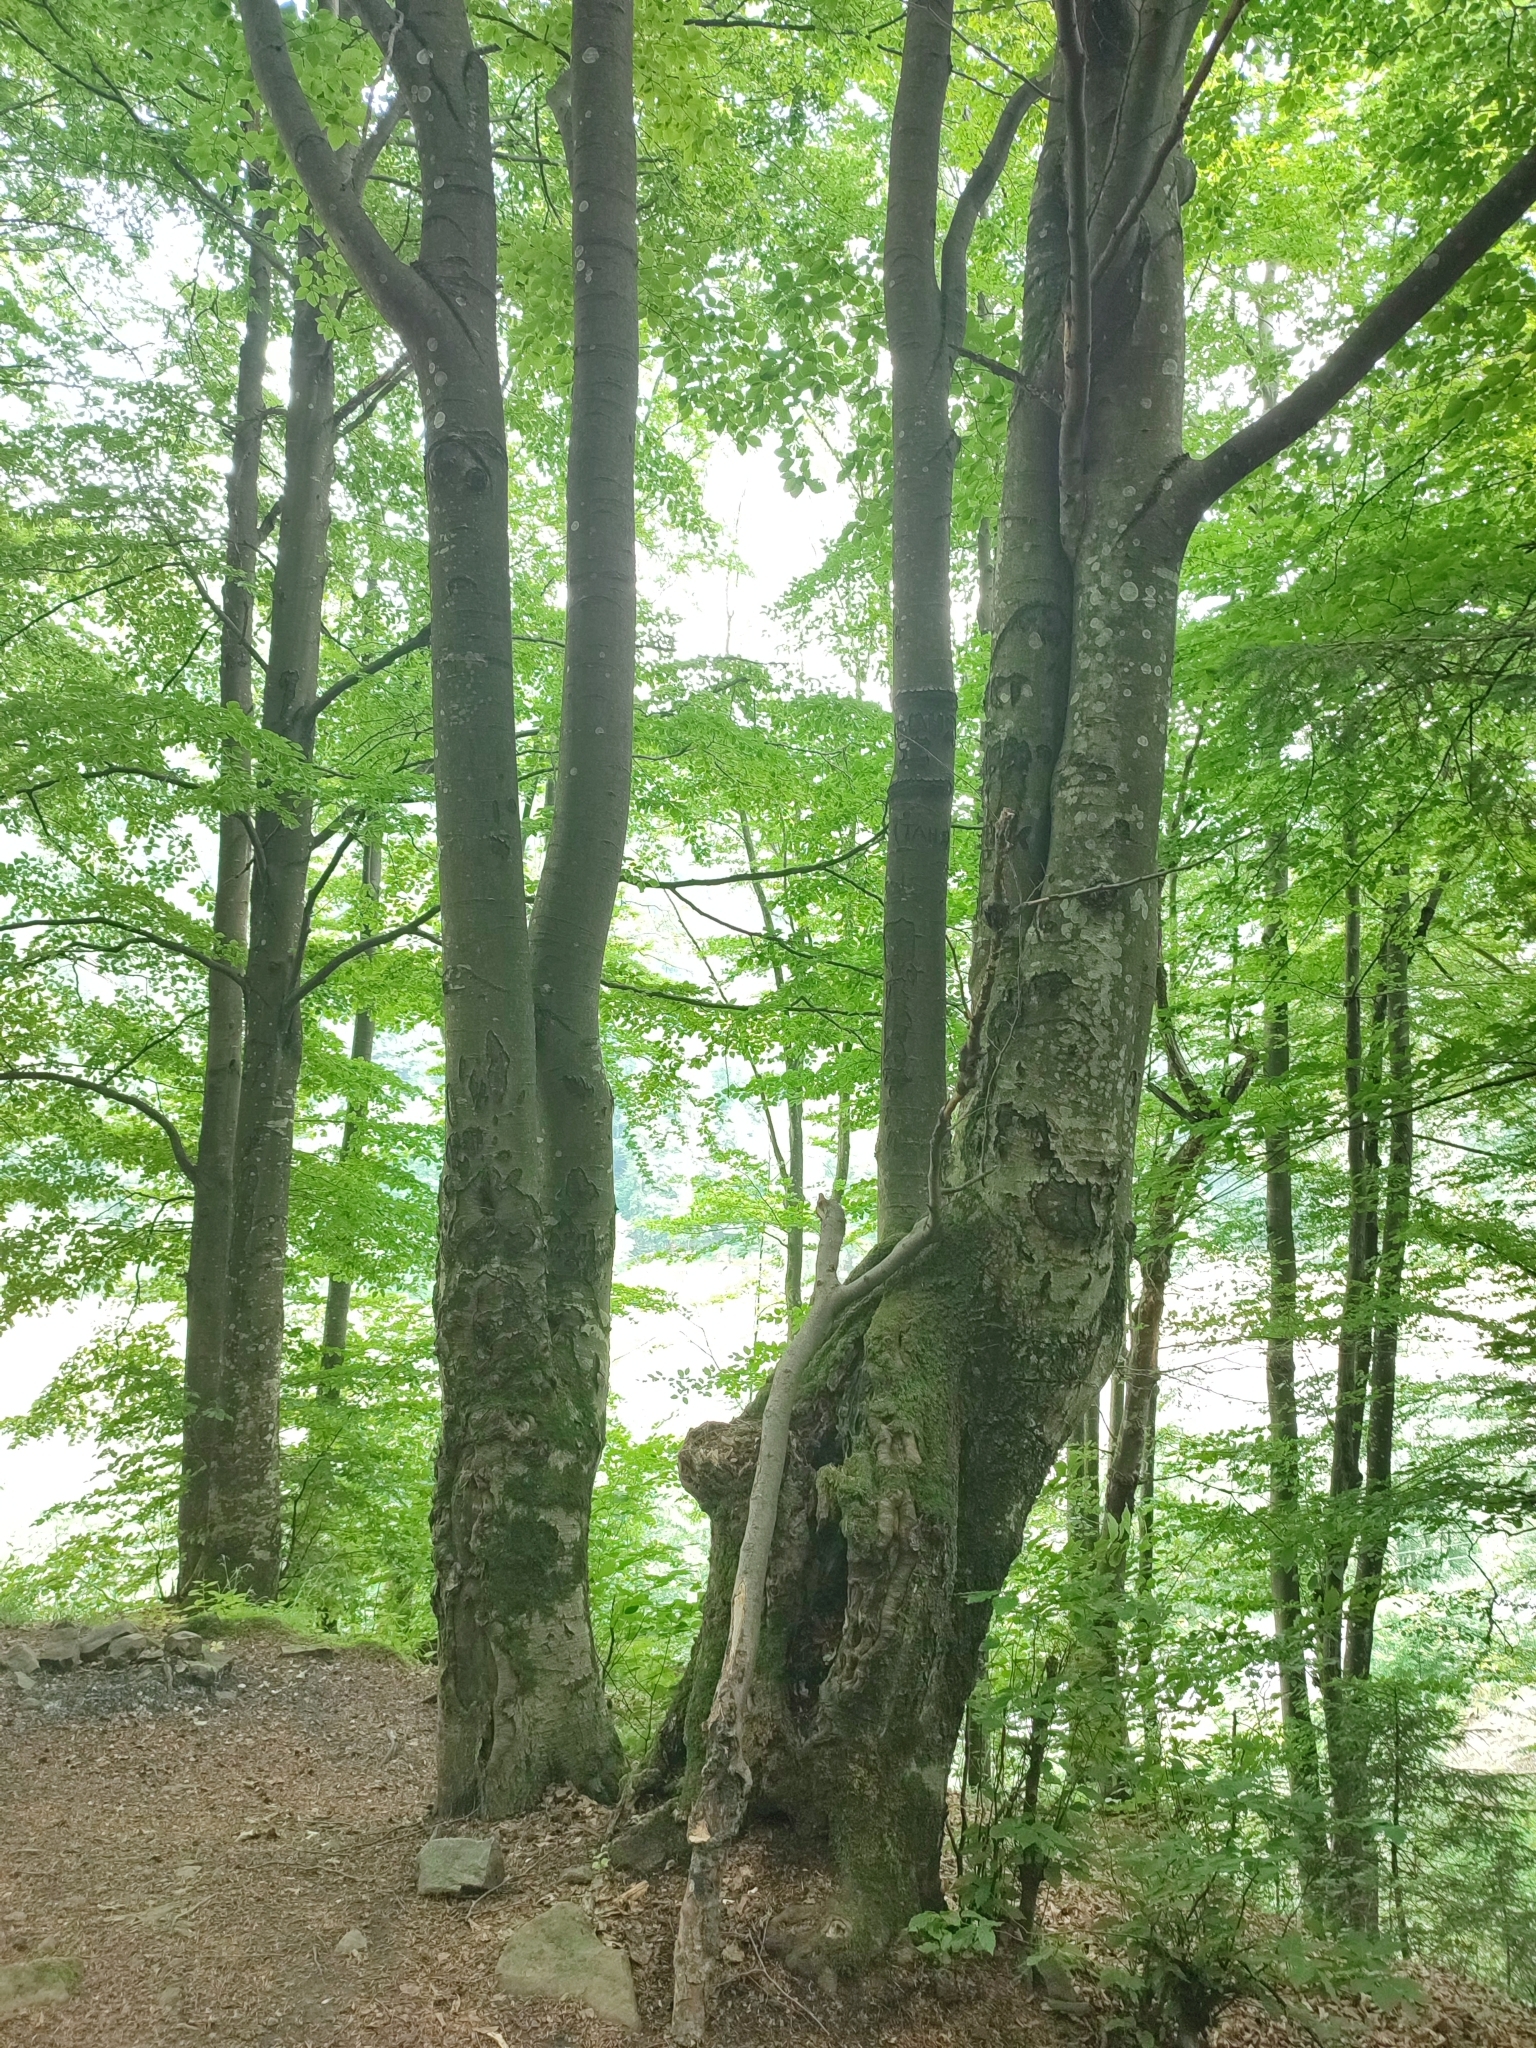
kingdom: Plantae
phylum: Tracheophyta
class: Magnoliopsida
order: Fagales
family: Fagaceae
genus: Fagus
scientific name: Fagus sylvatica
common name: Beech
